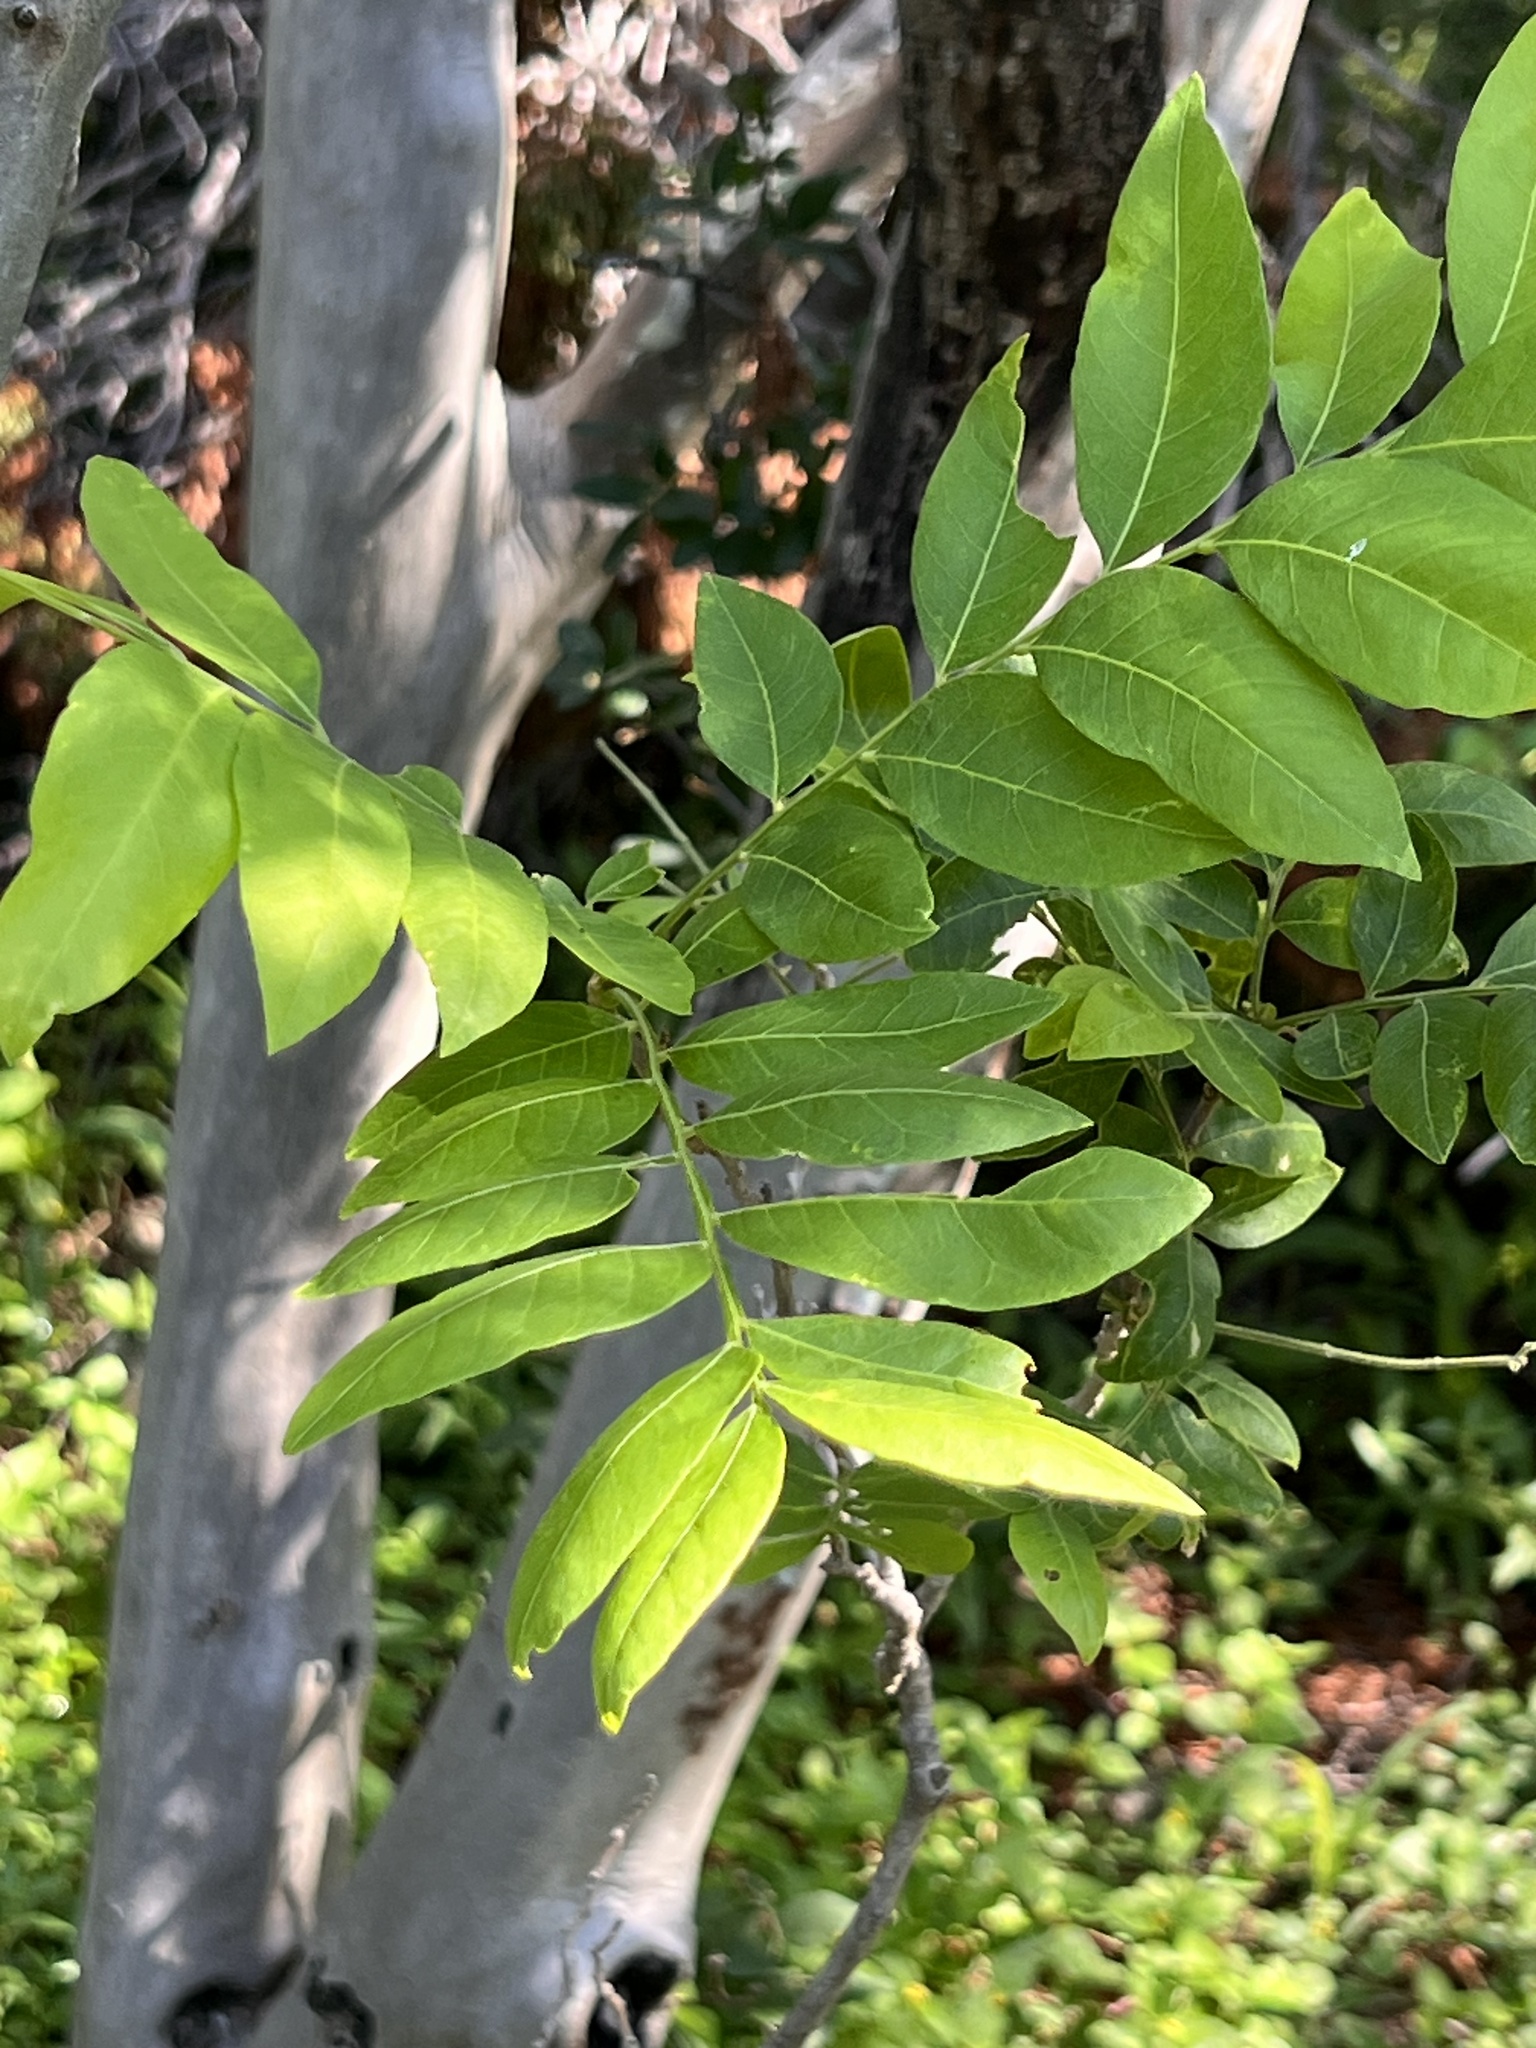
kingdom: Plantae
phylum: Tracheophyta
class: Magnoliopsida
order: Sapindales
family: Sapindaceae
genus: Sapindus
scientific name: Sapindus drummondii
